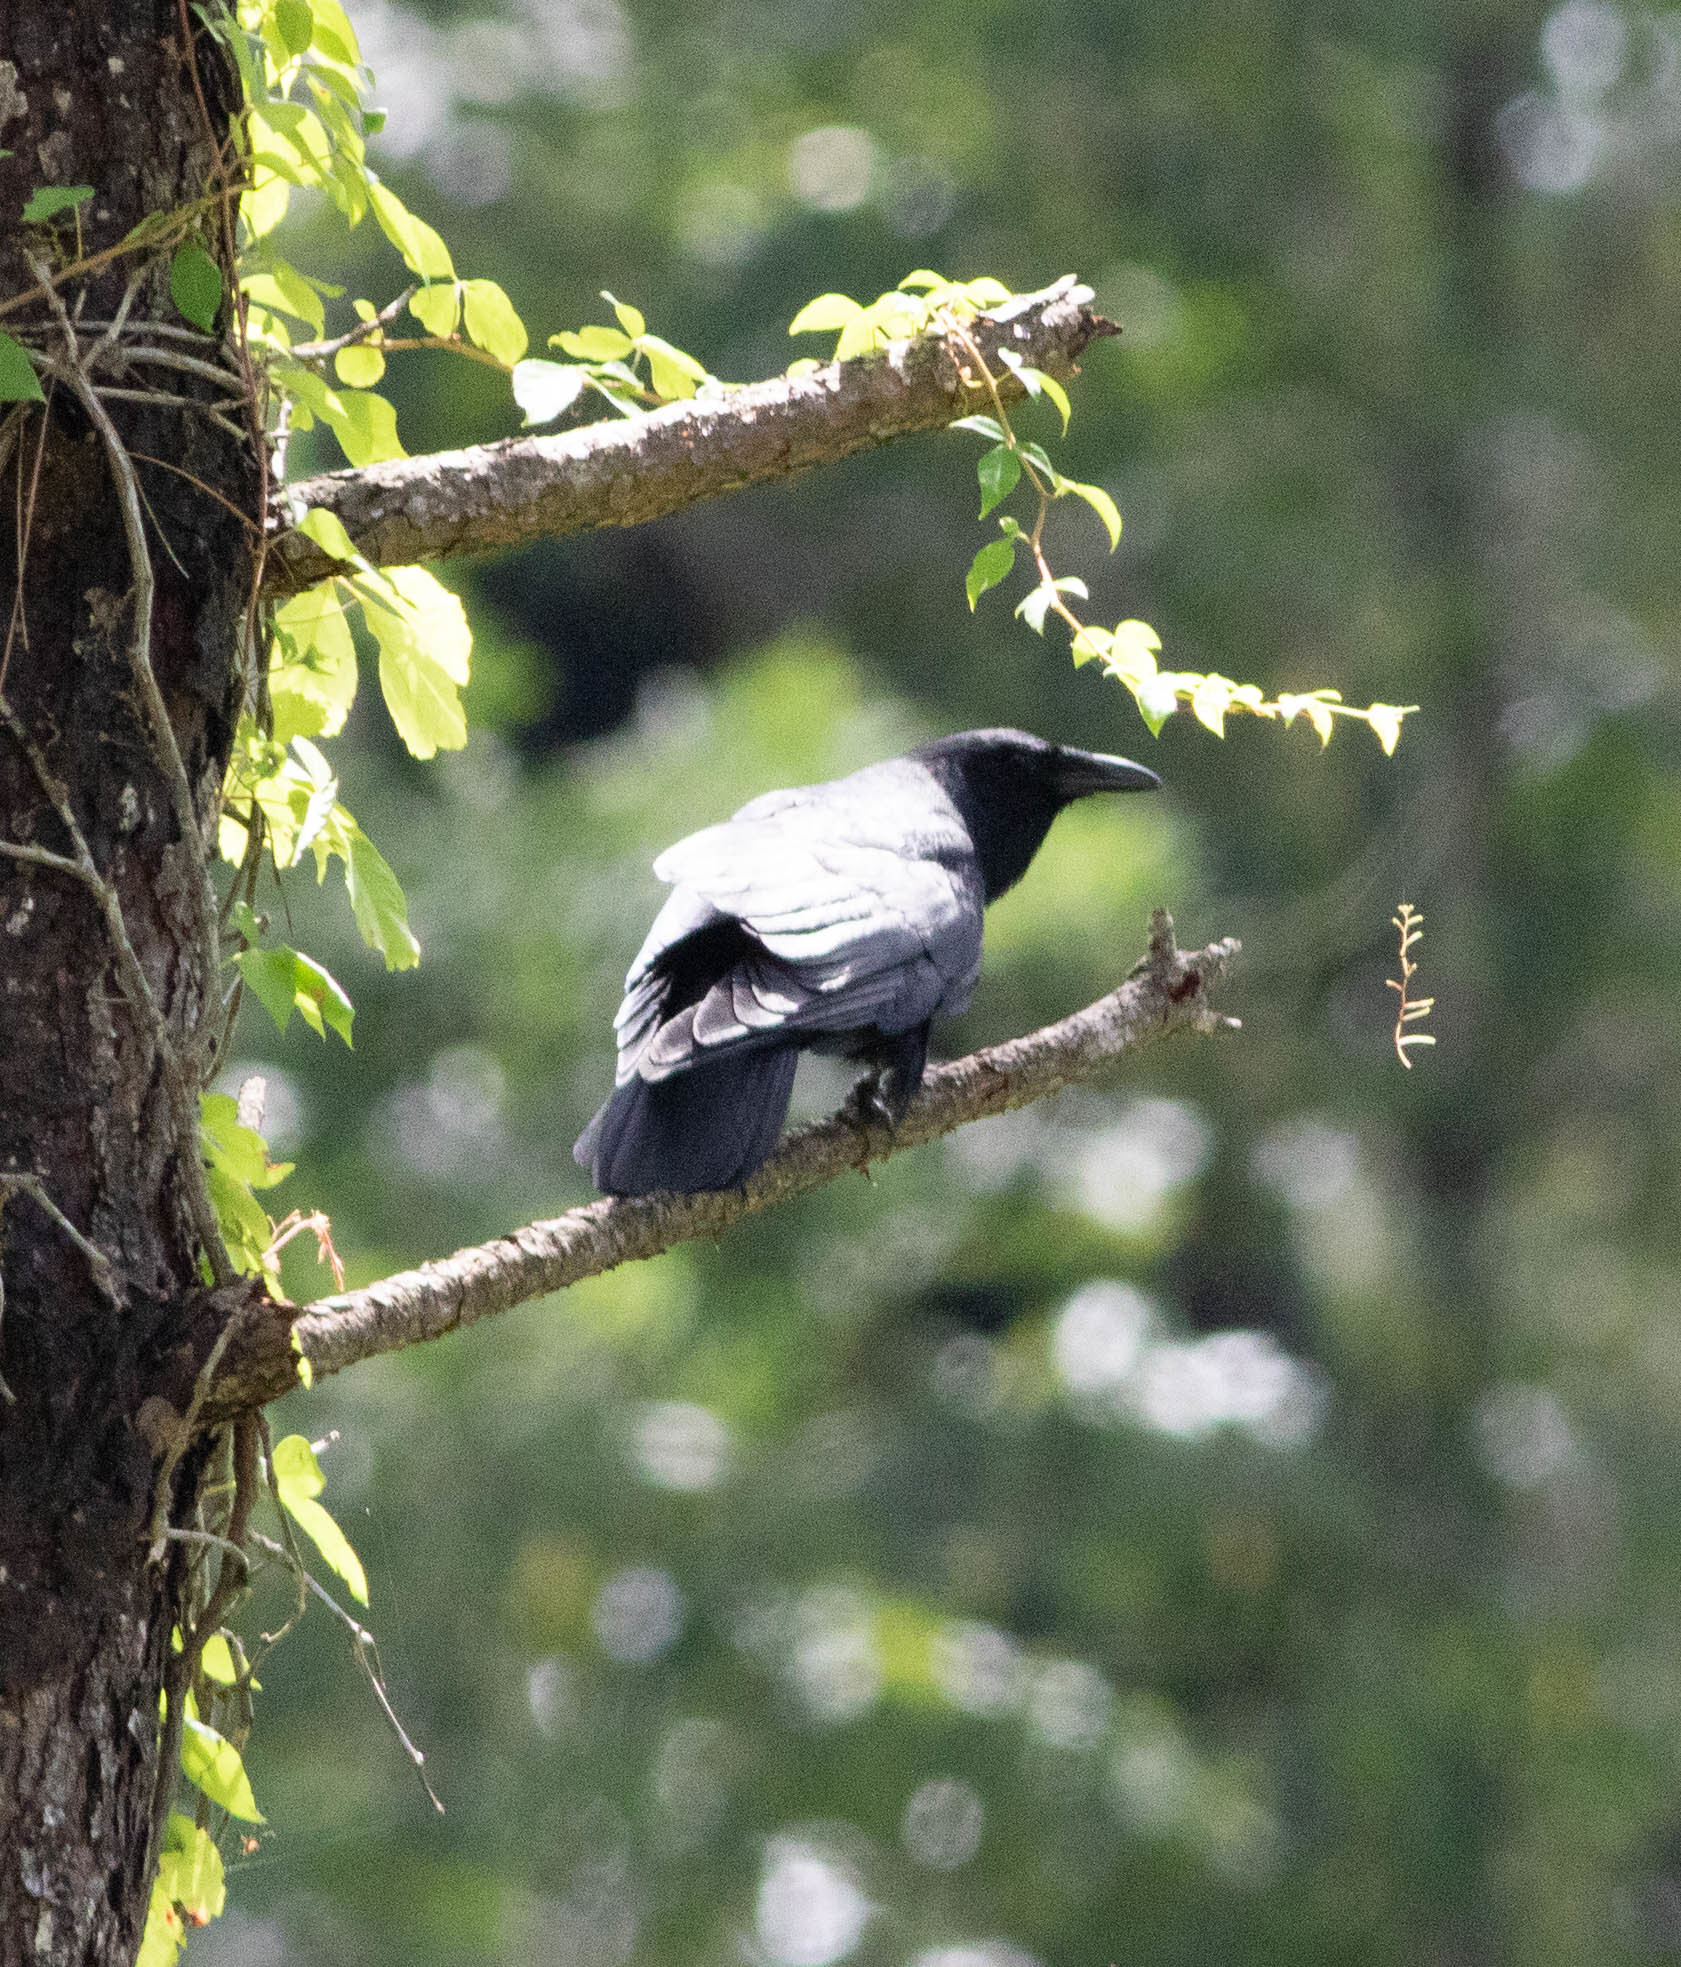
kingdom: Animalia
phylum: Chordata
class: Aves
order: Passeriformes
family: Corvidae
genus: Corvus
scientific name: Corvus brachyrhynchos
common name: American crow
